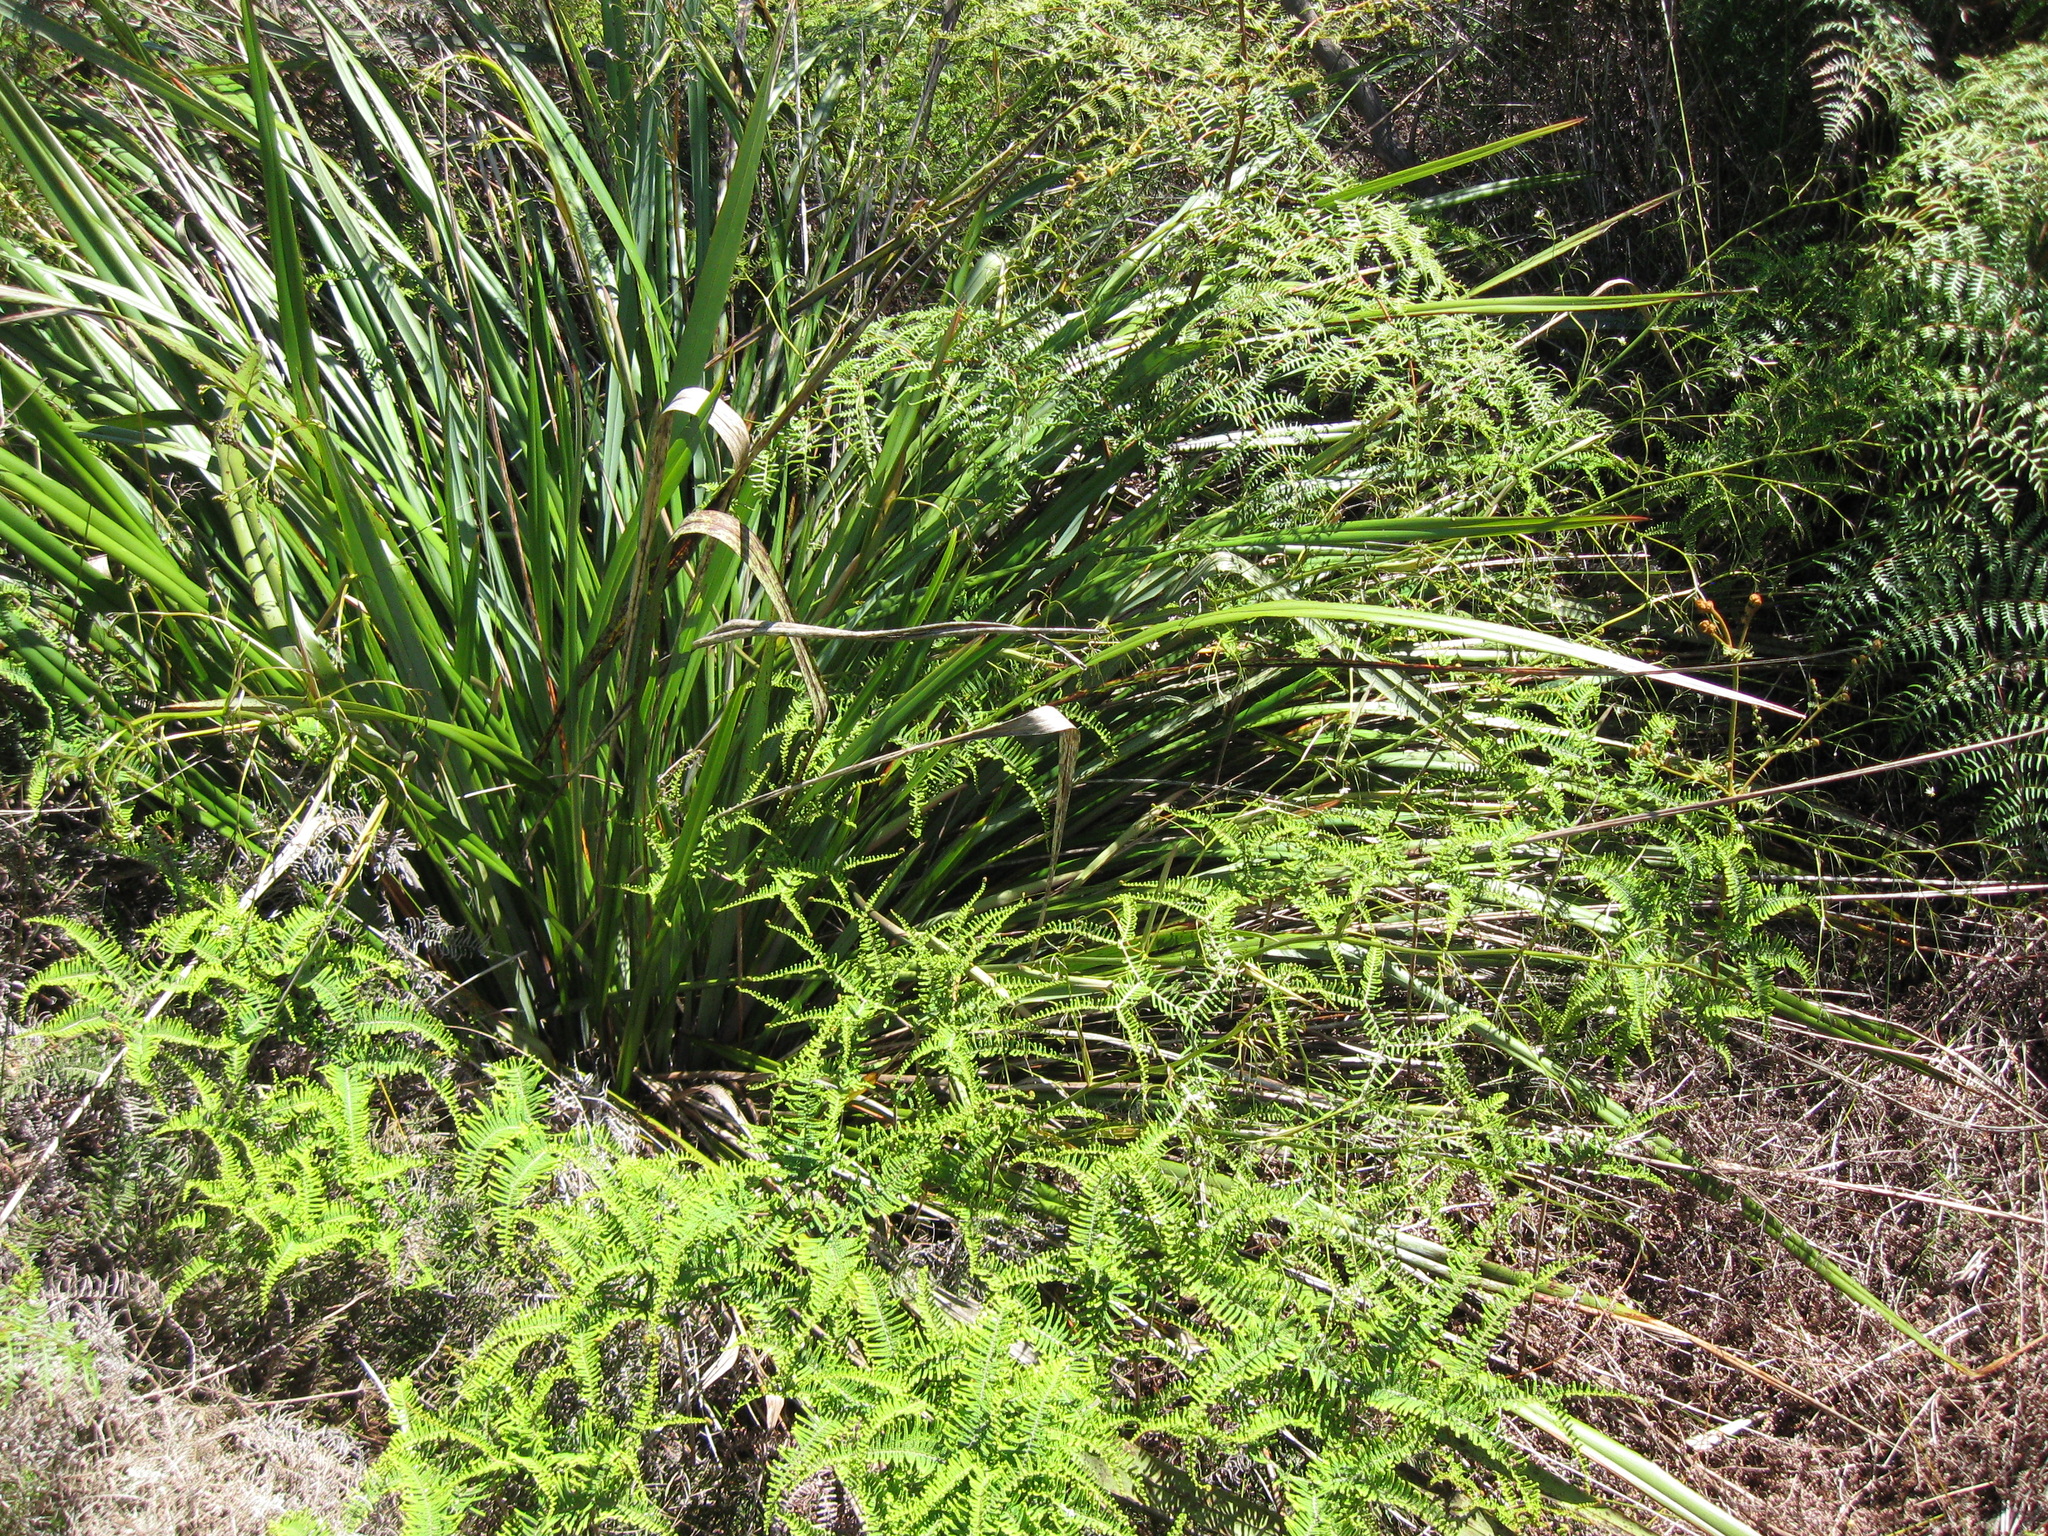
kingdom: Plantae
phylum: Tracheophyta
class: Liliopsida
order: Asparagales
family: Asphodelaceae
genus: Dianella
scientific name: Dianella haematica
